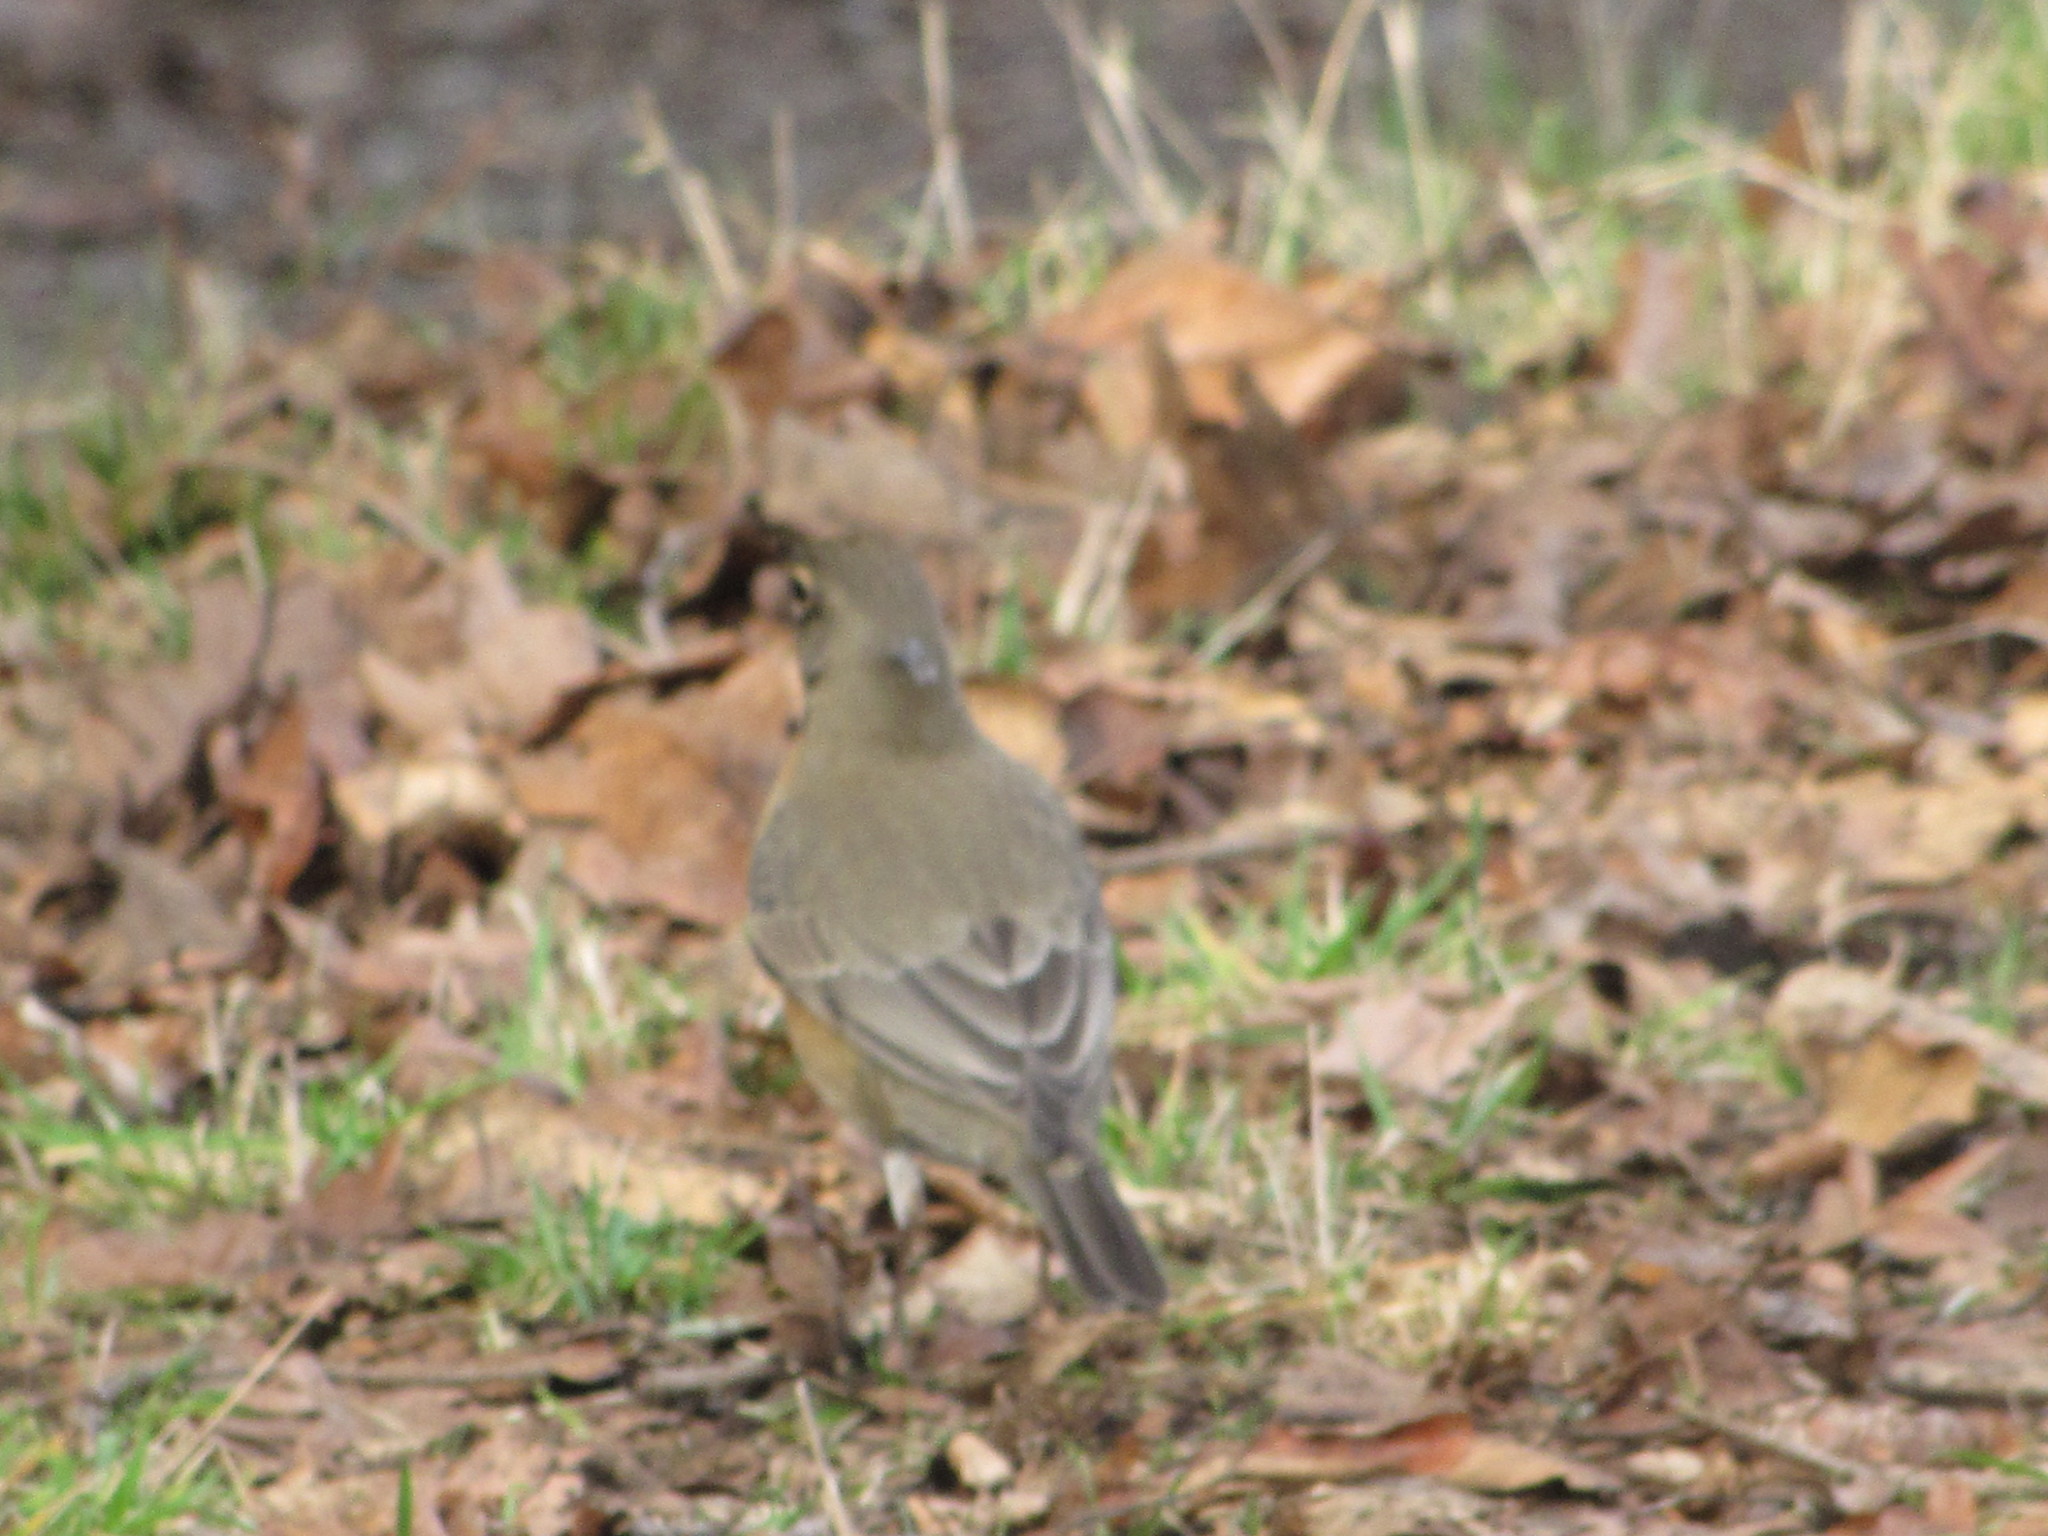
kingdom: Animalia
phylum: Chordata
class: Aves
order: Passeriformes
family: Turdidae
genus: Turdus
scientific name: Turdus migratorius
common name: American robin
